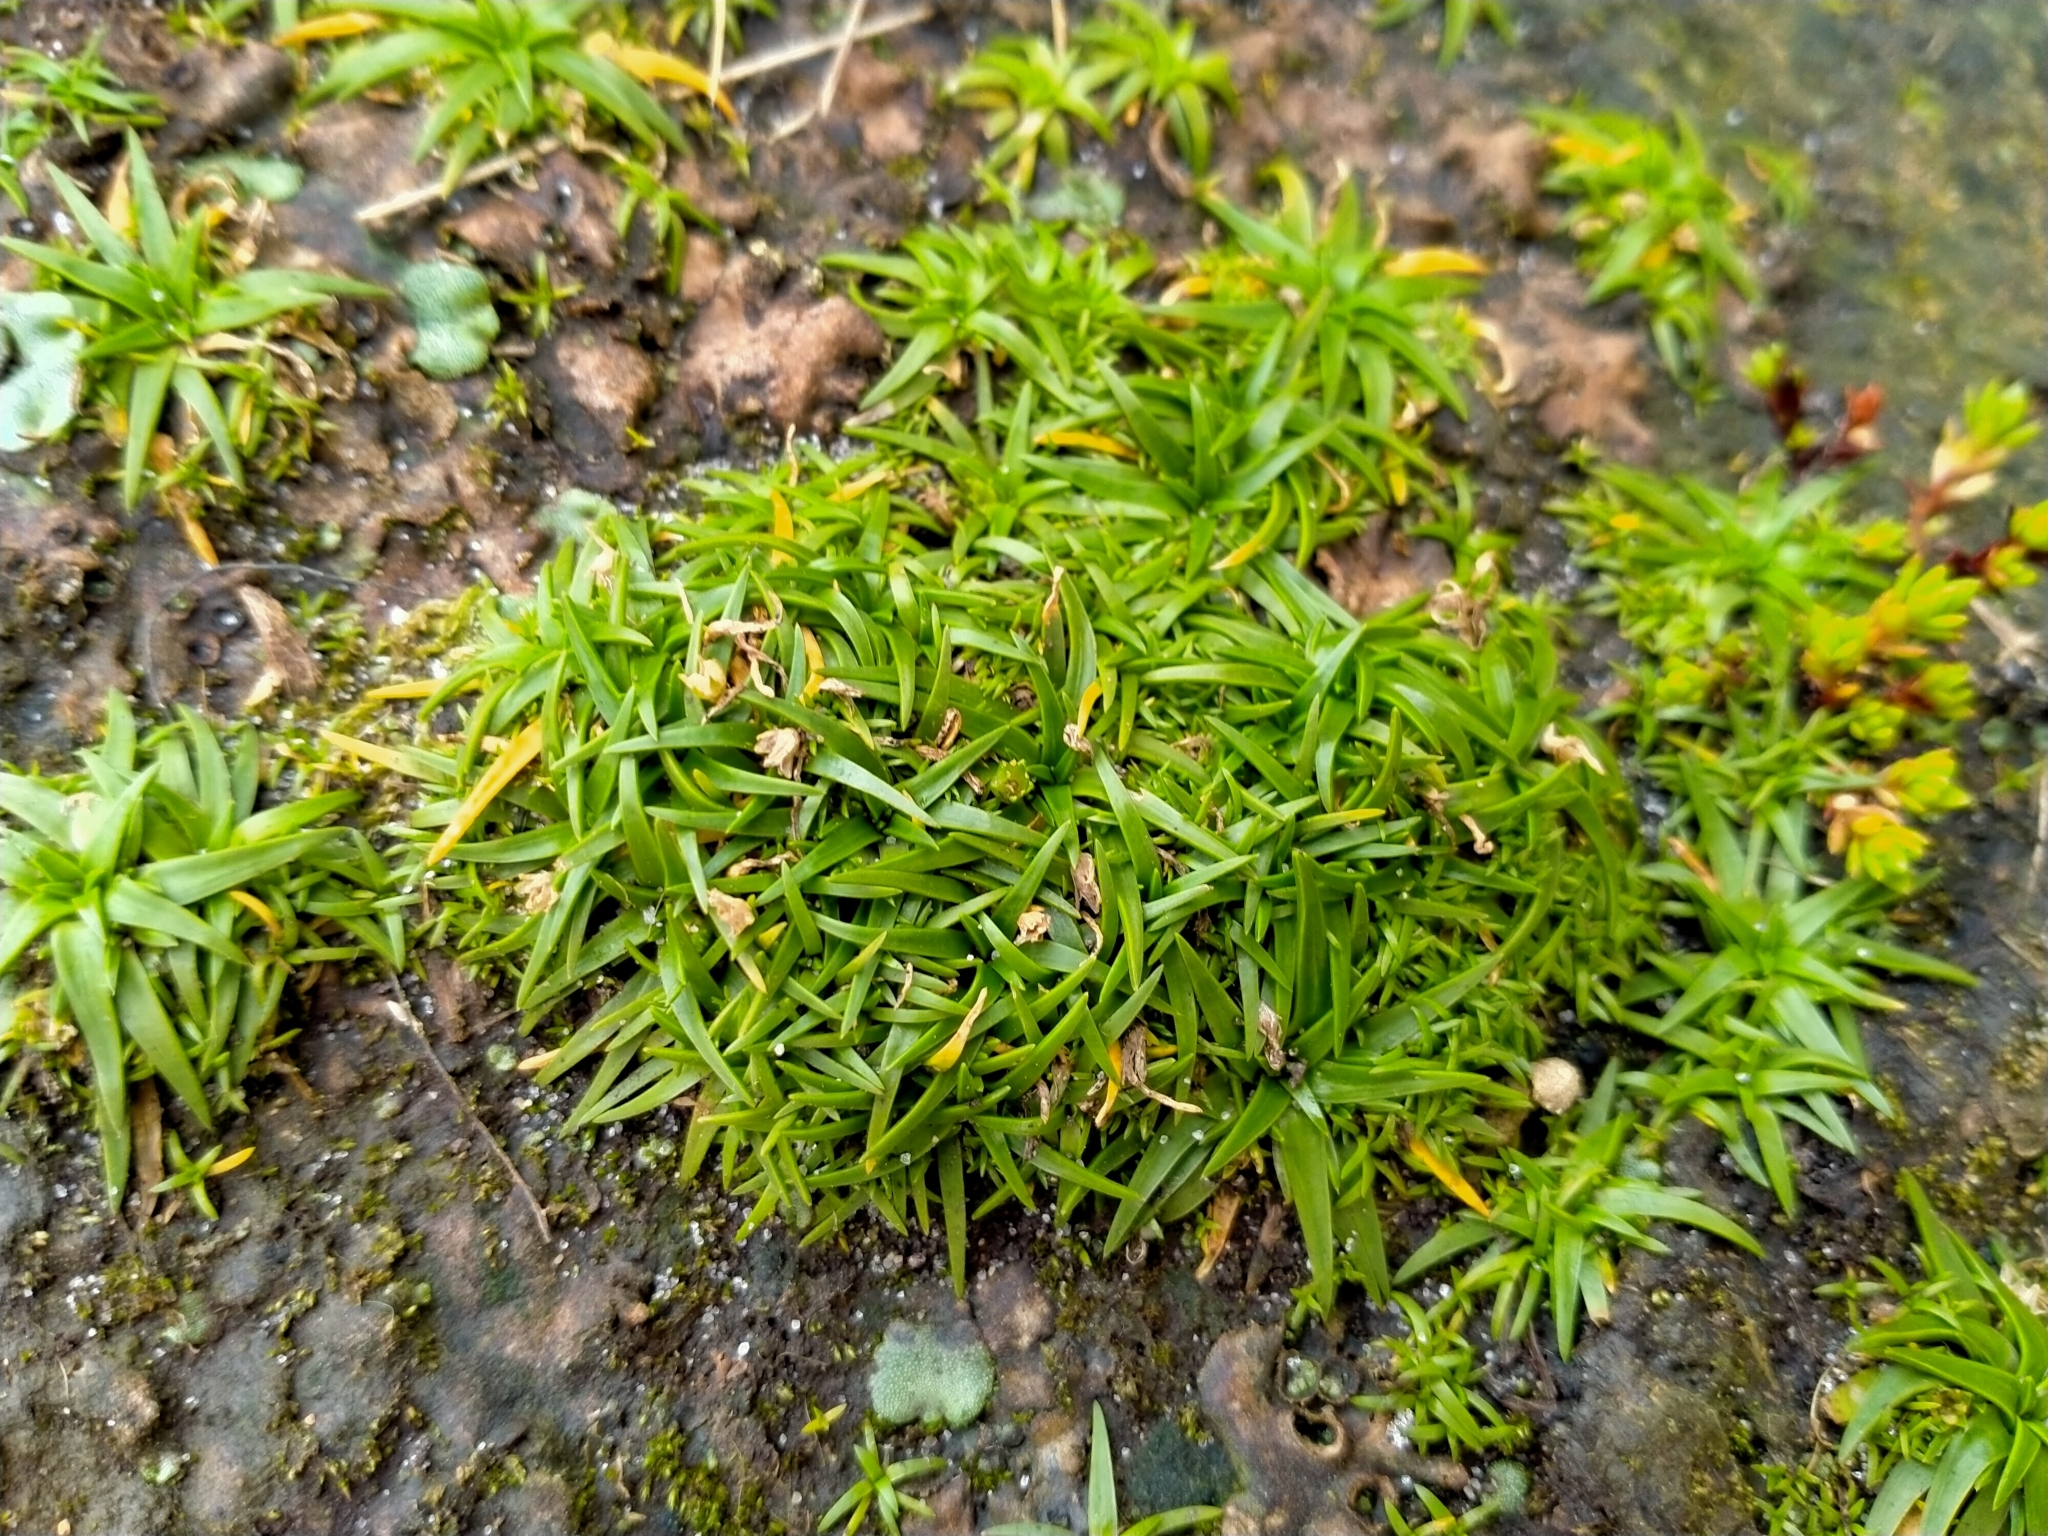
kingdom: Plantae
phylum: Tracheophyta
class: Magnoliopsida
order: Caryophyllales
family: Caryophyllaceae
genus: Colobanthus
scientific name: Colobanthus muelleri
